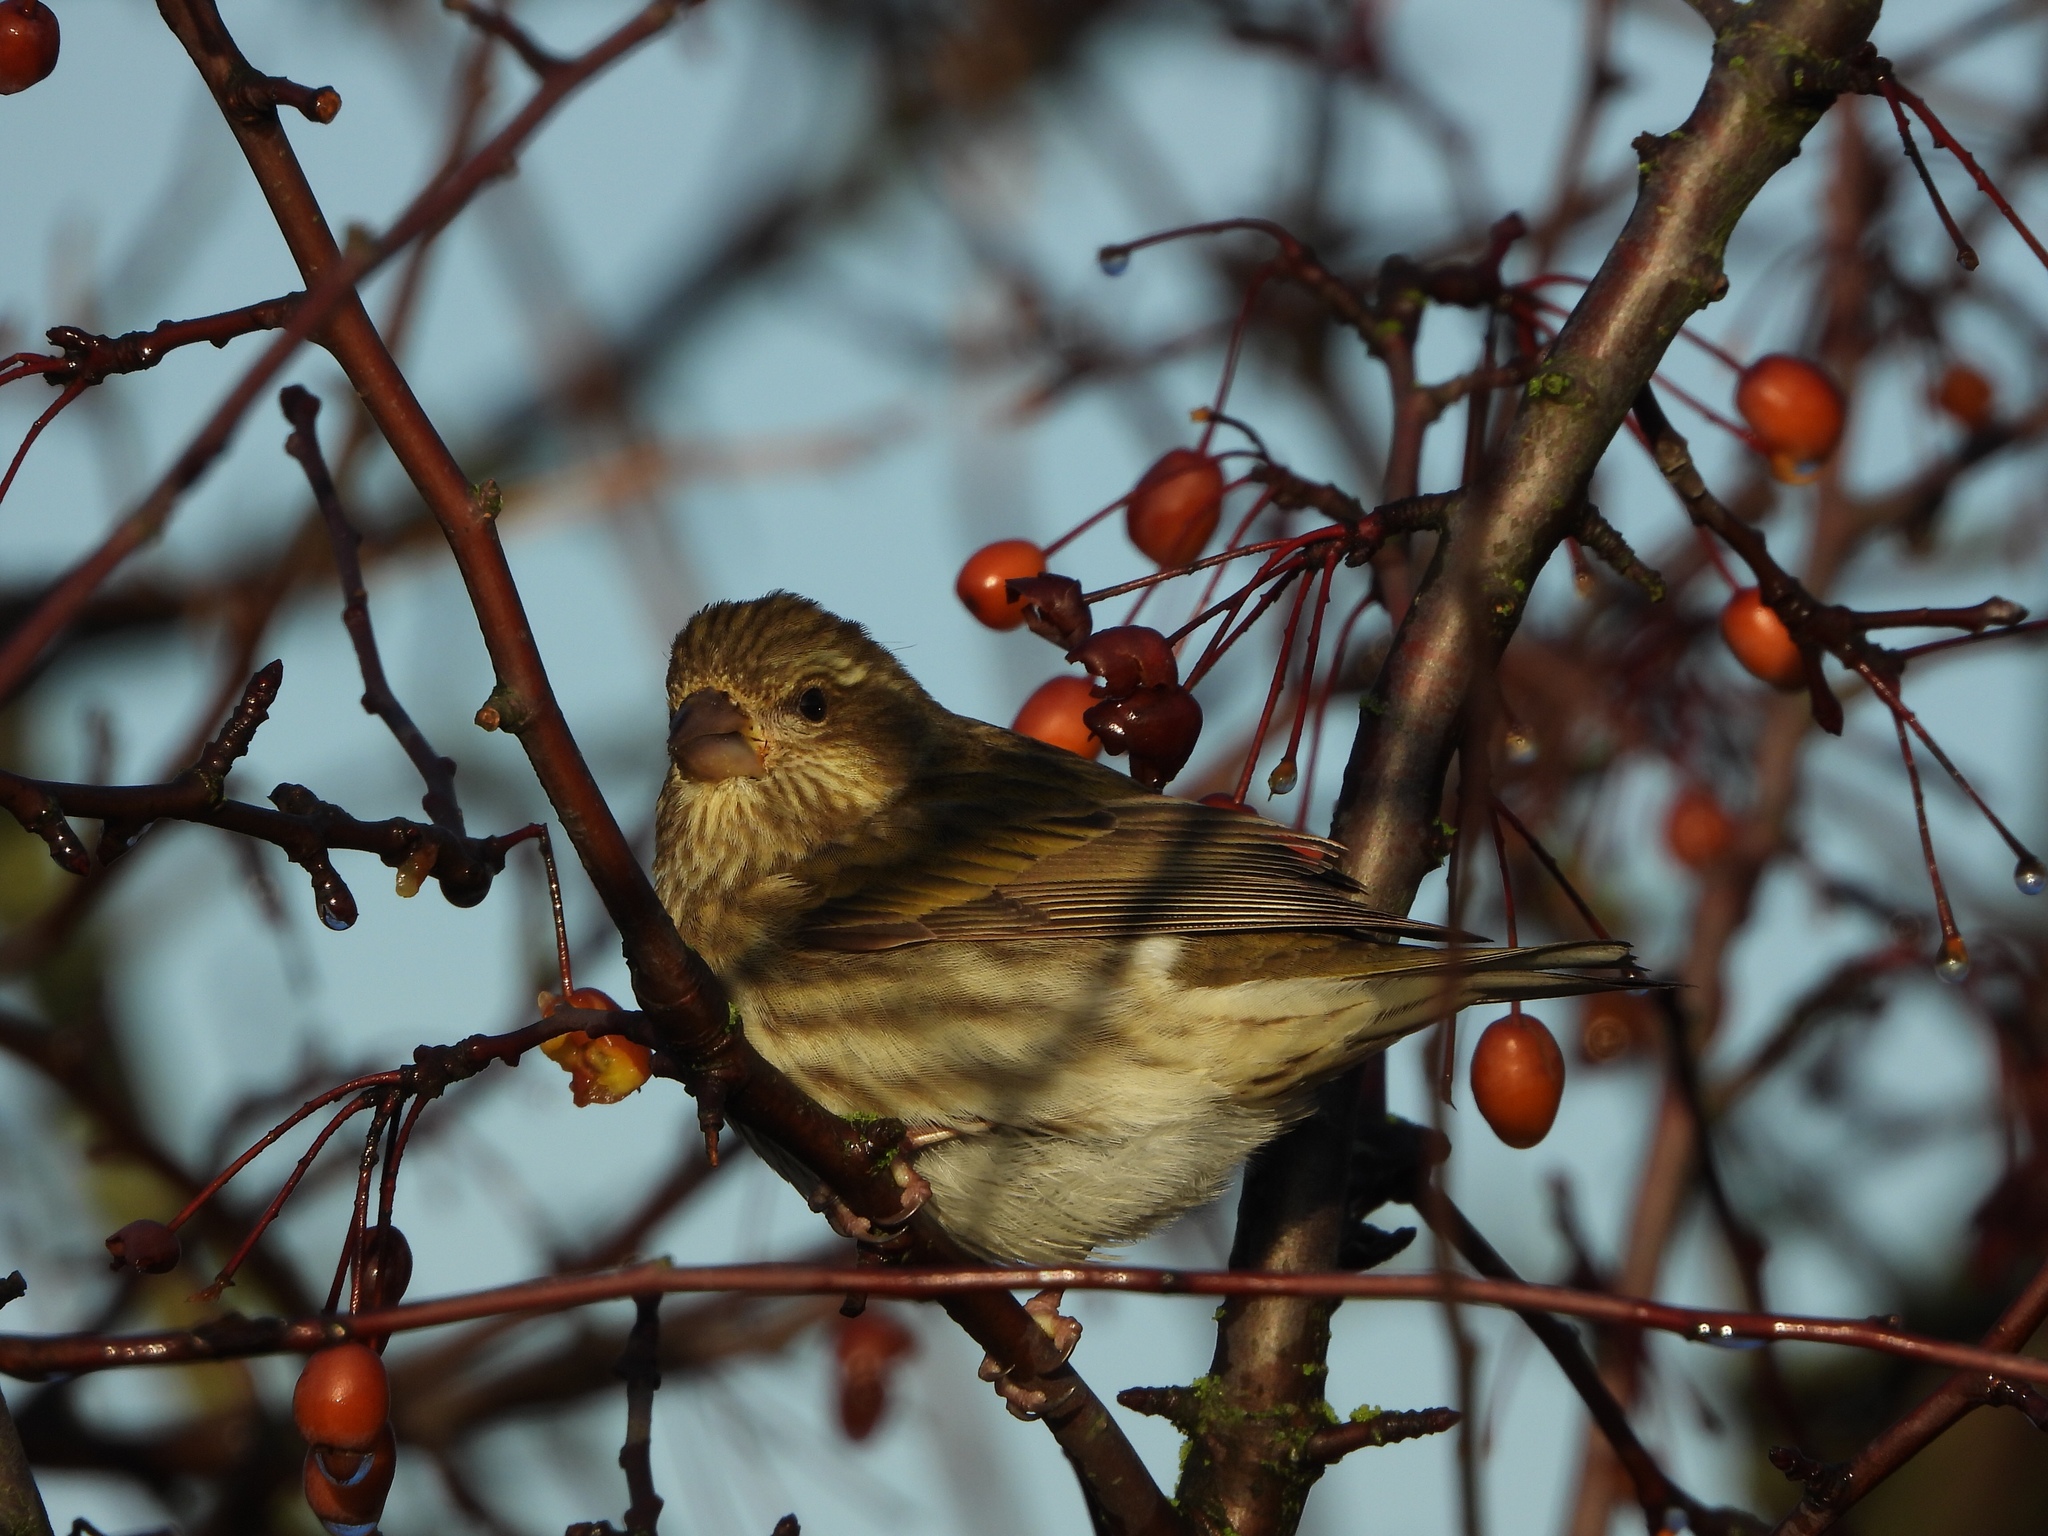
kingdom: Animalia
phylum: Chordata
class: Aves
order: Passeriformes
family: Fringillidae
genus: Haemorhous
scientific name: Haemorhous purpureus
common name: Purple finch
